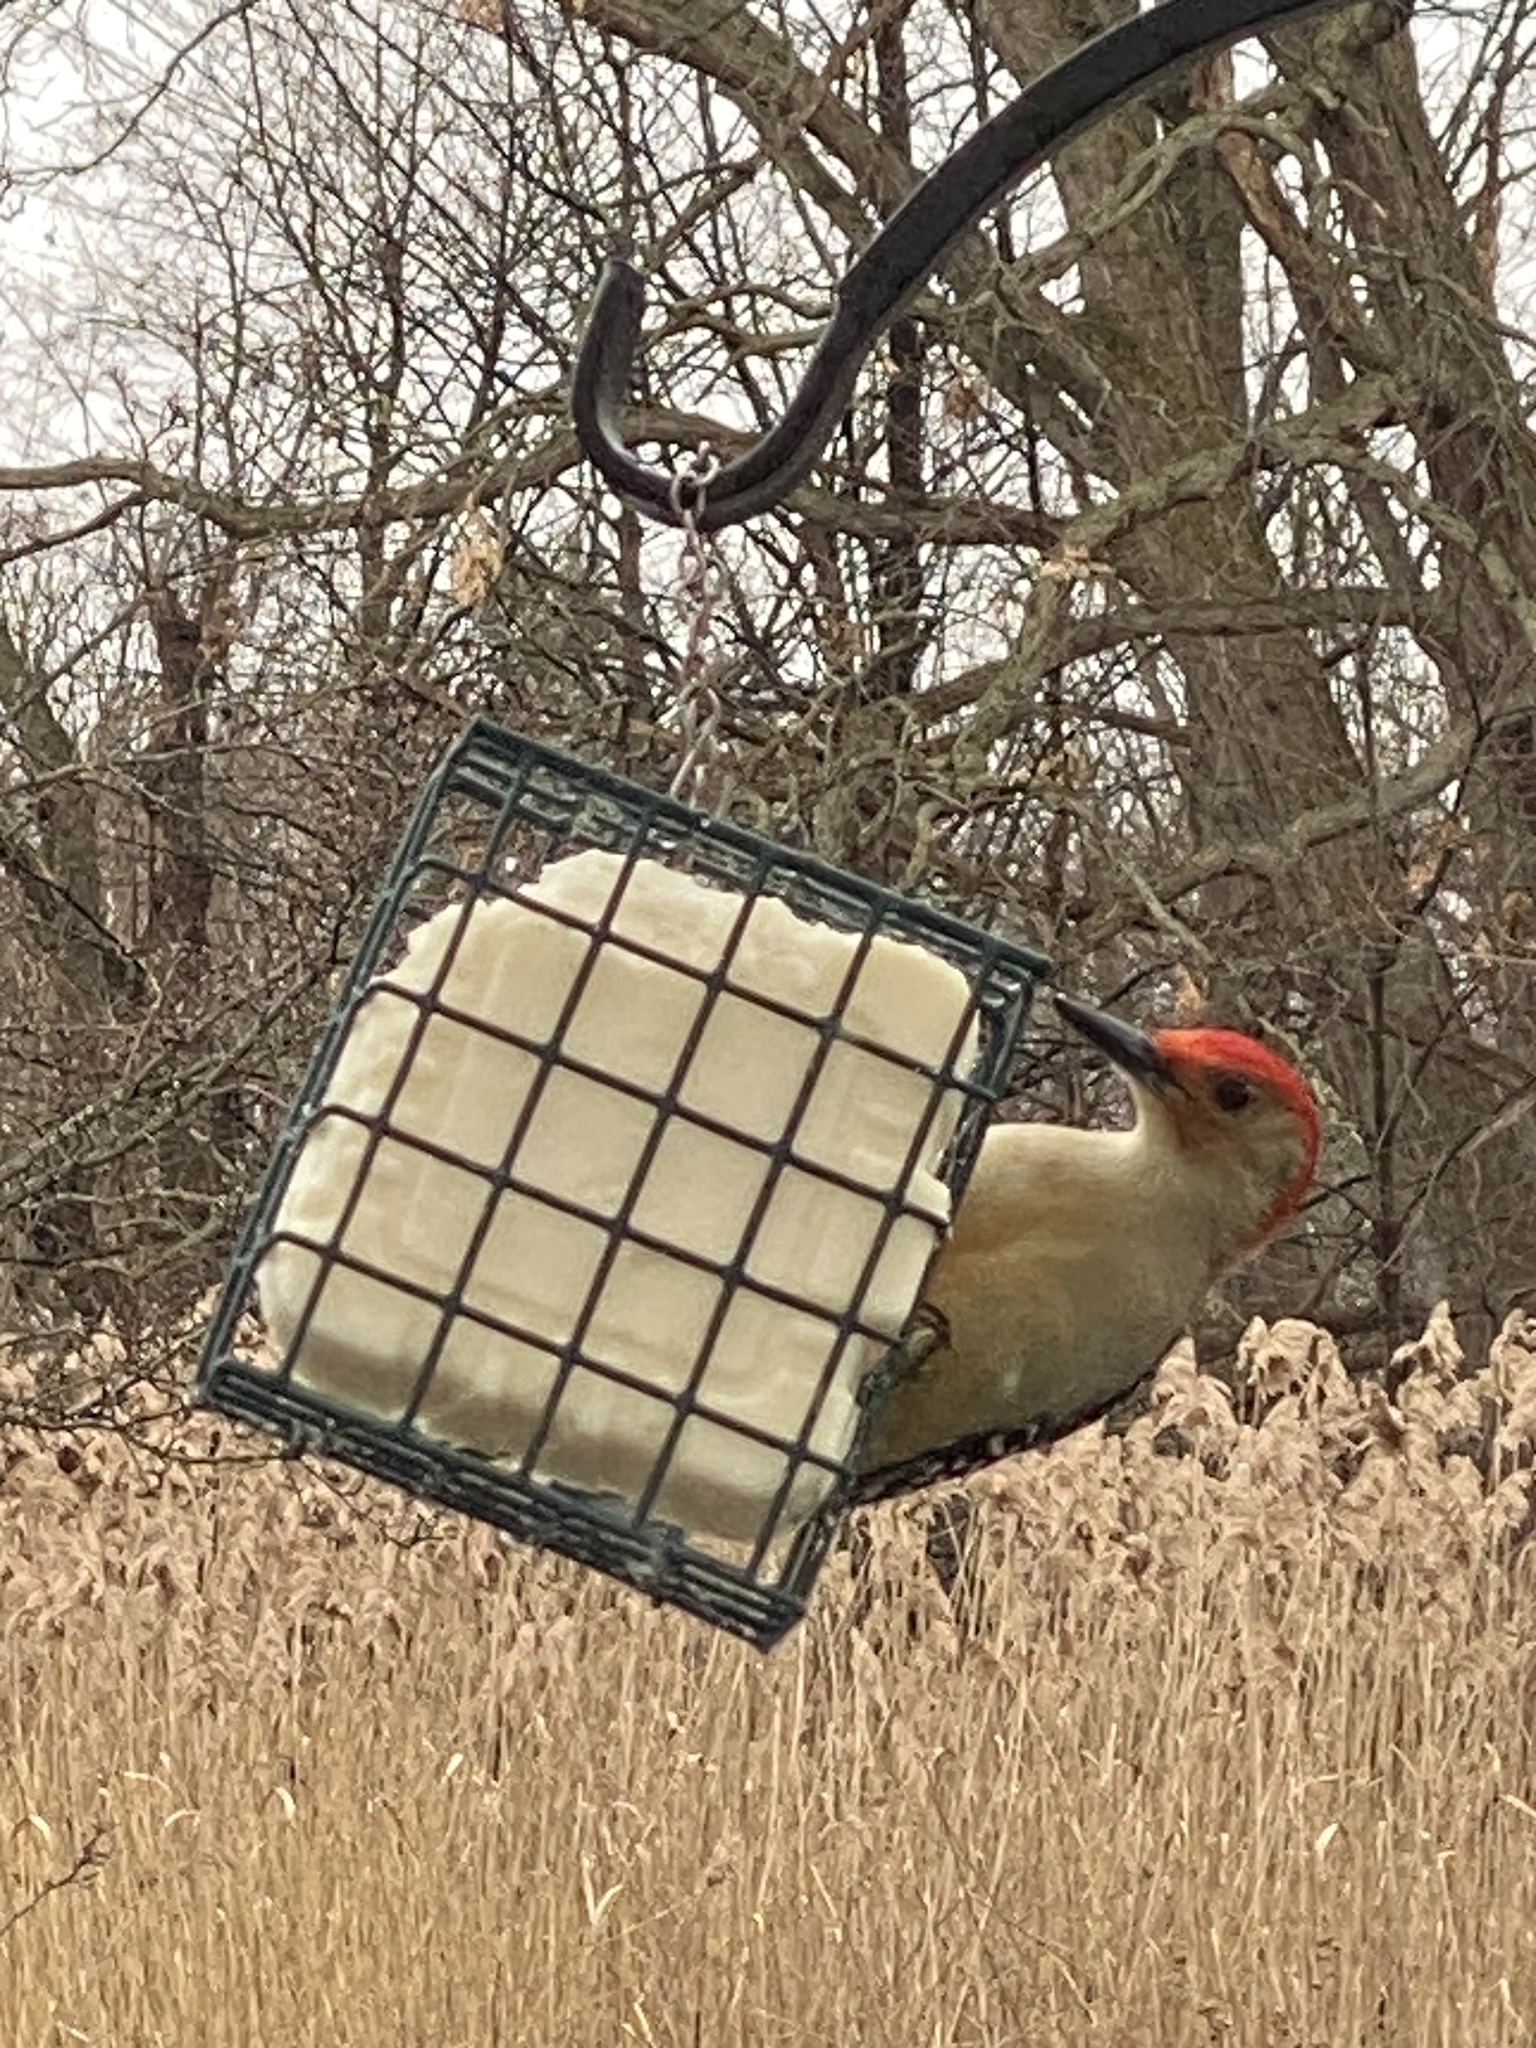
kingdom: Animalia
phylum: Chordata
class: Aves
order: Piciformes
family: Picidae
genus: Melanerpes
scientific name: Melanerpes carolinus
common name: Red-bellied woodpecker
